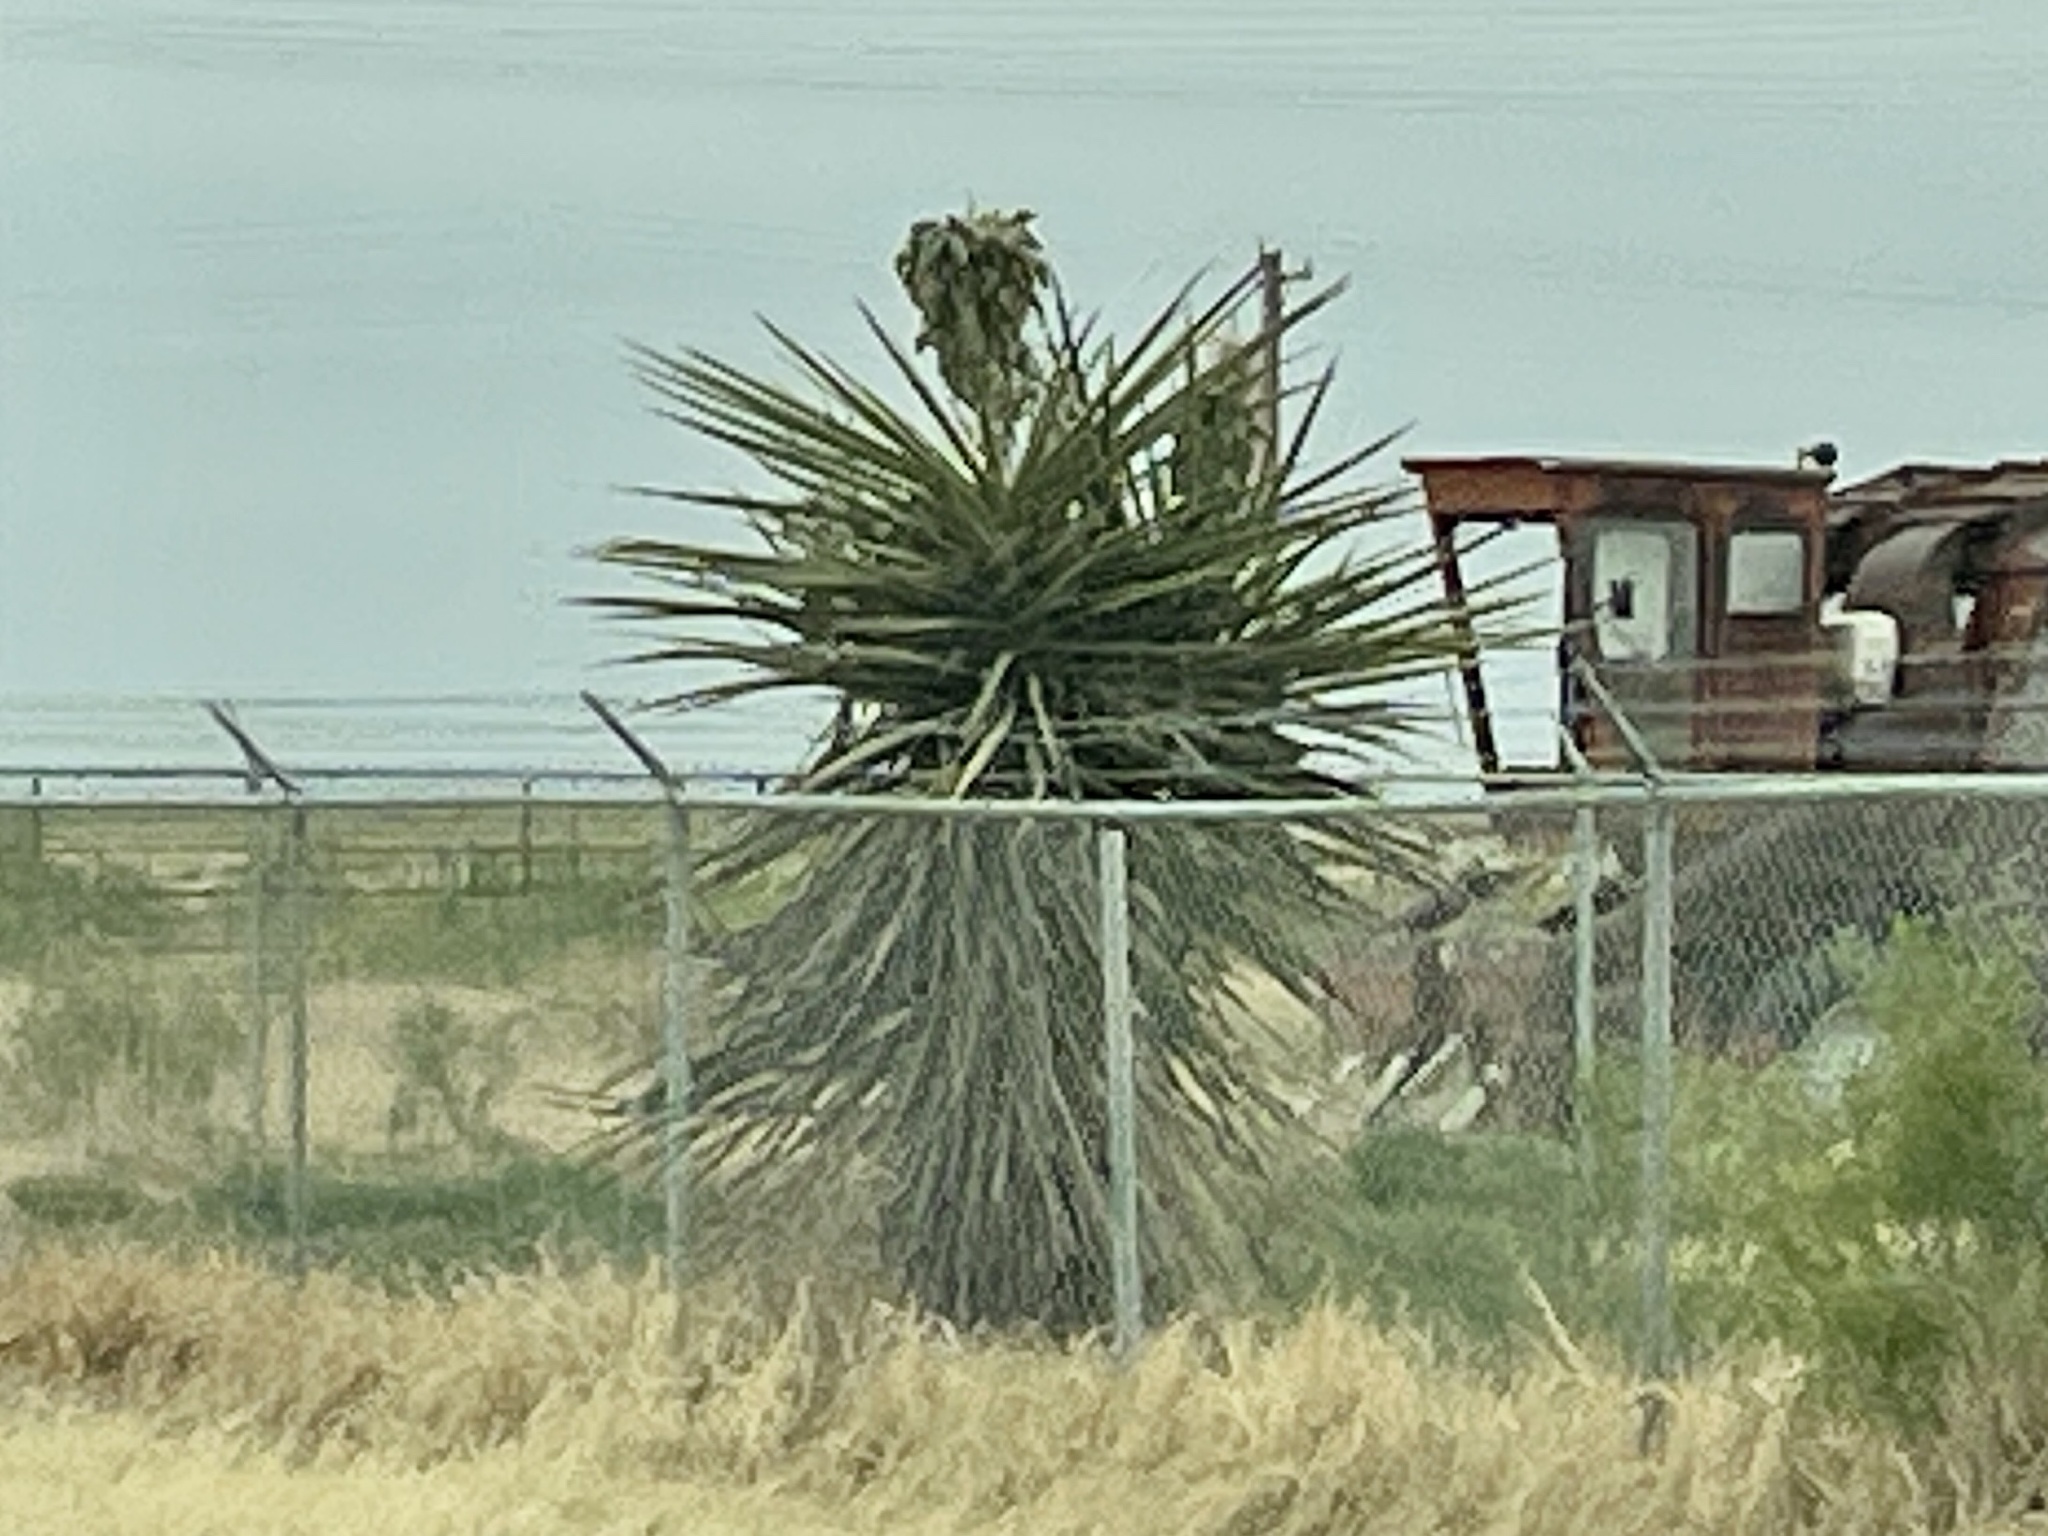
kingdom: Plantae
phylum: Tracheophyta
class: Liliopsida
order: Asparagales
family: Asparagaceae
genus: Yucca
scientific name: Yucca treculiana
